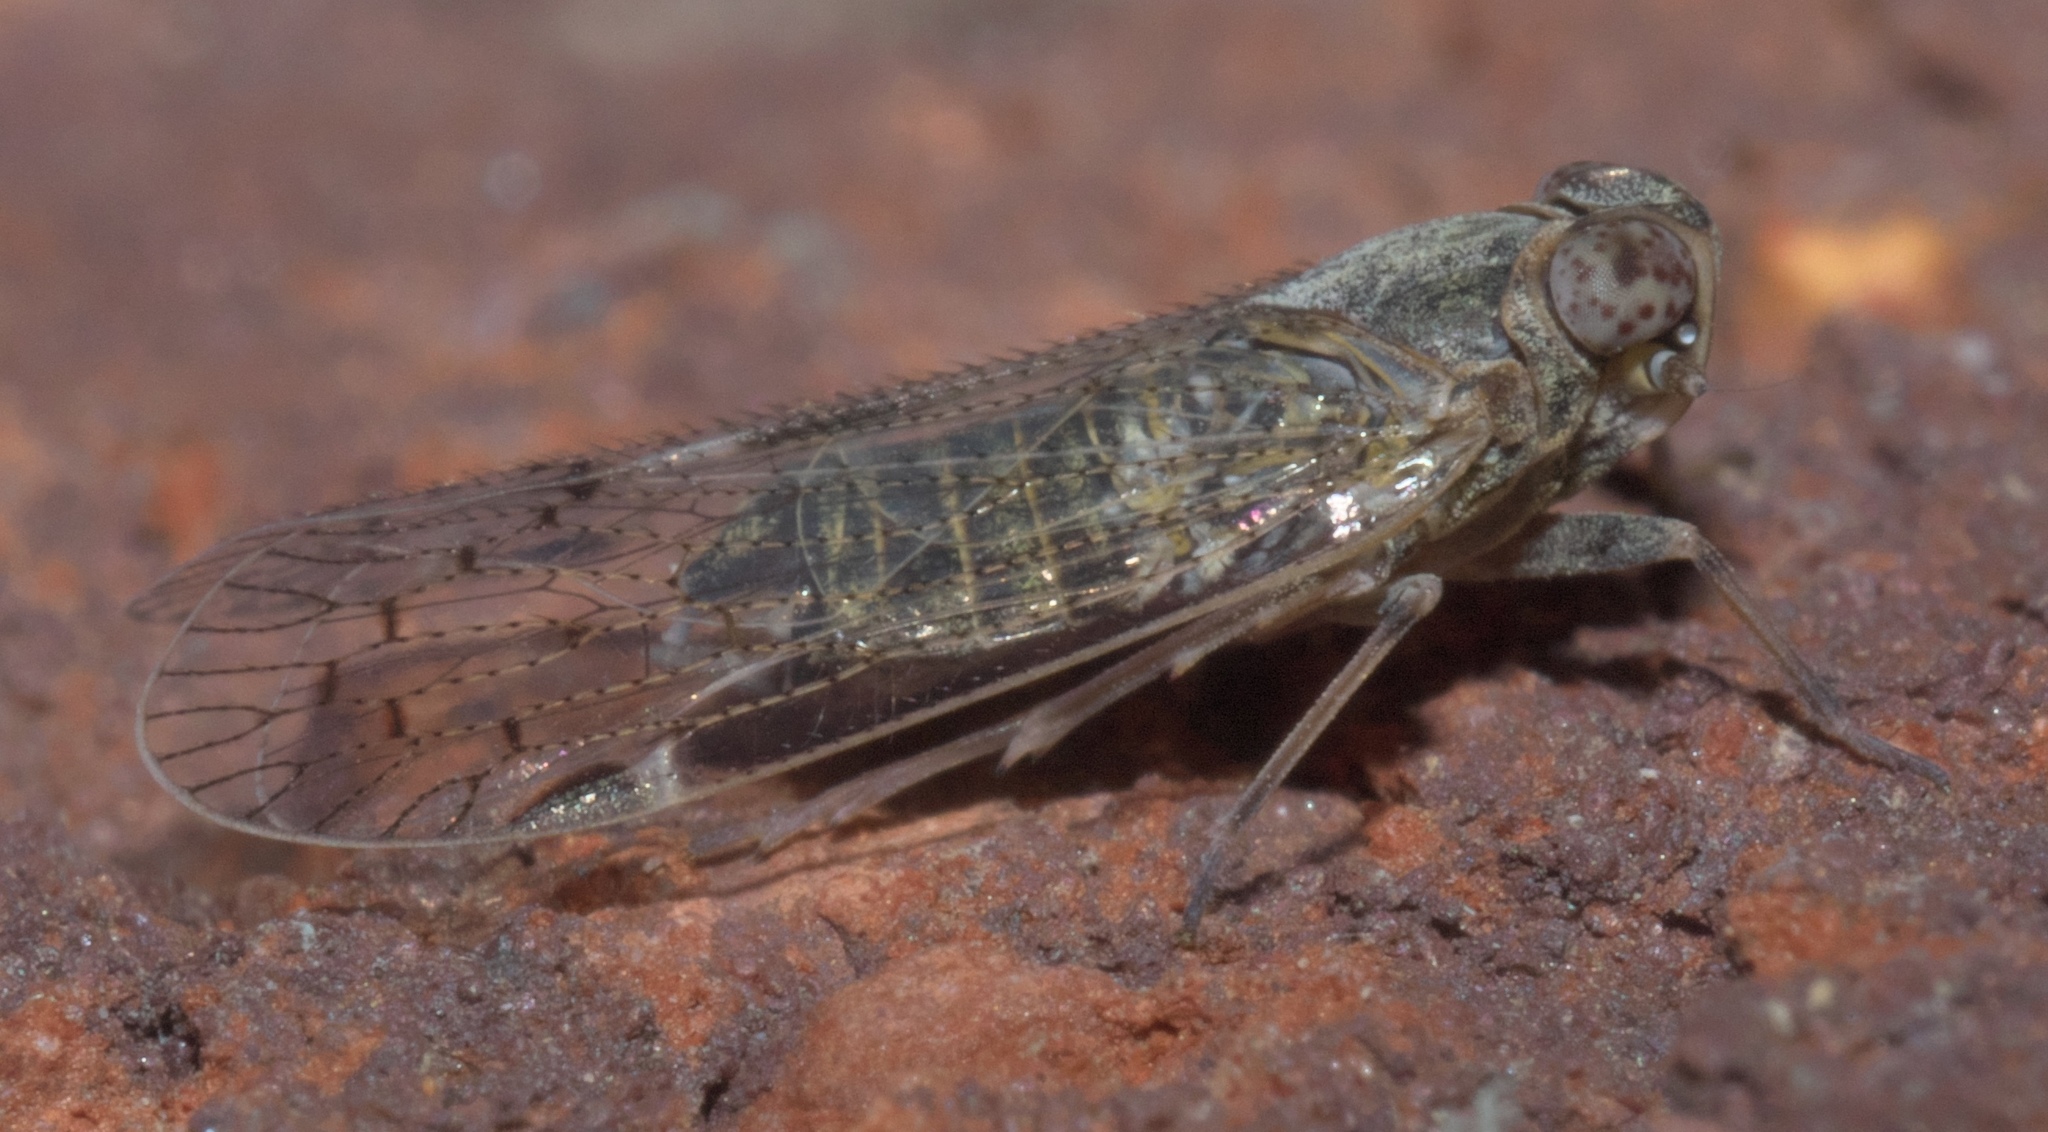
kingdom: Animalia
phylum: Arthropoda
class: Insecta
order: Hemiptera
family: Cixiidae
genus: Melanoliarus
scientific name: Melanoliarus aridus
